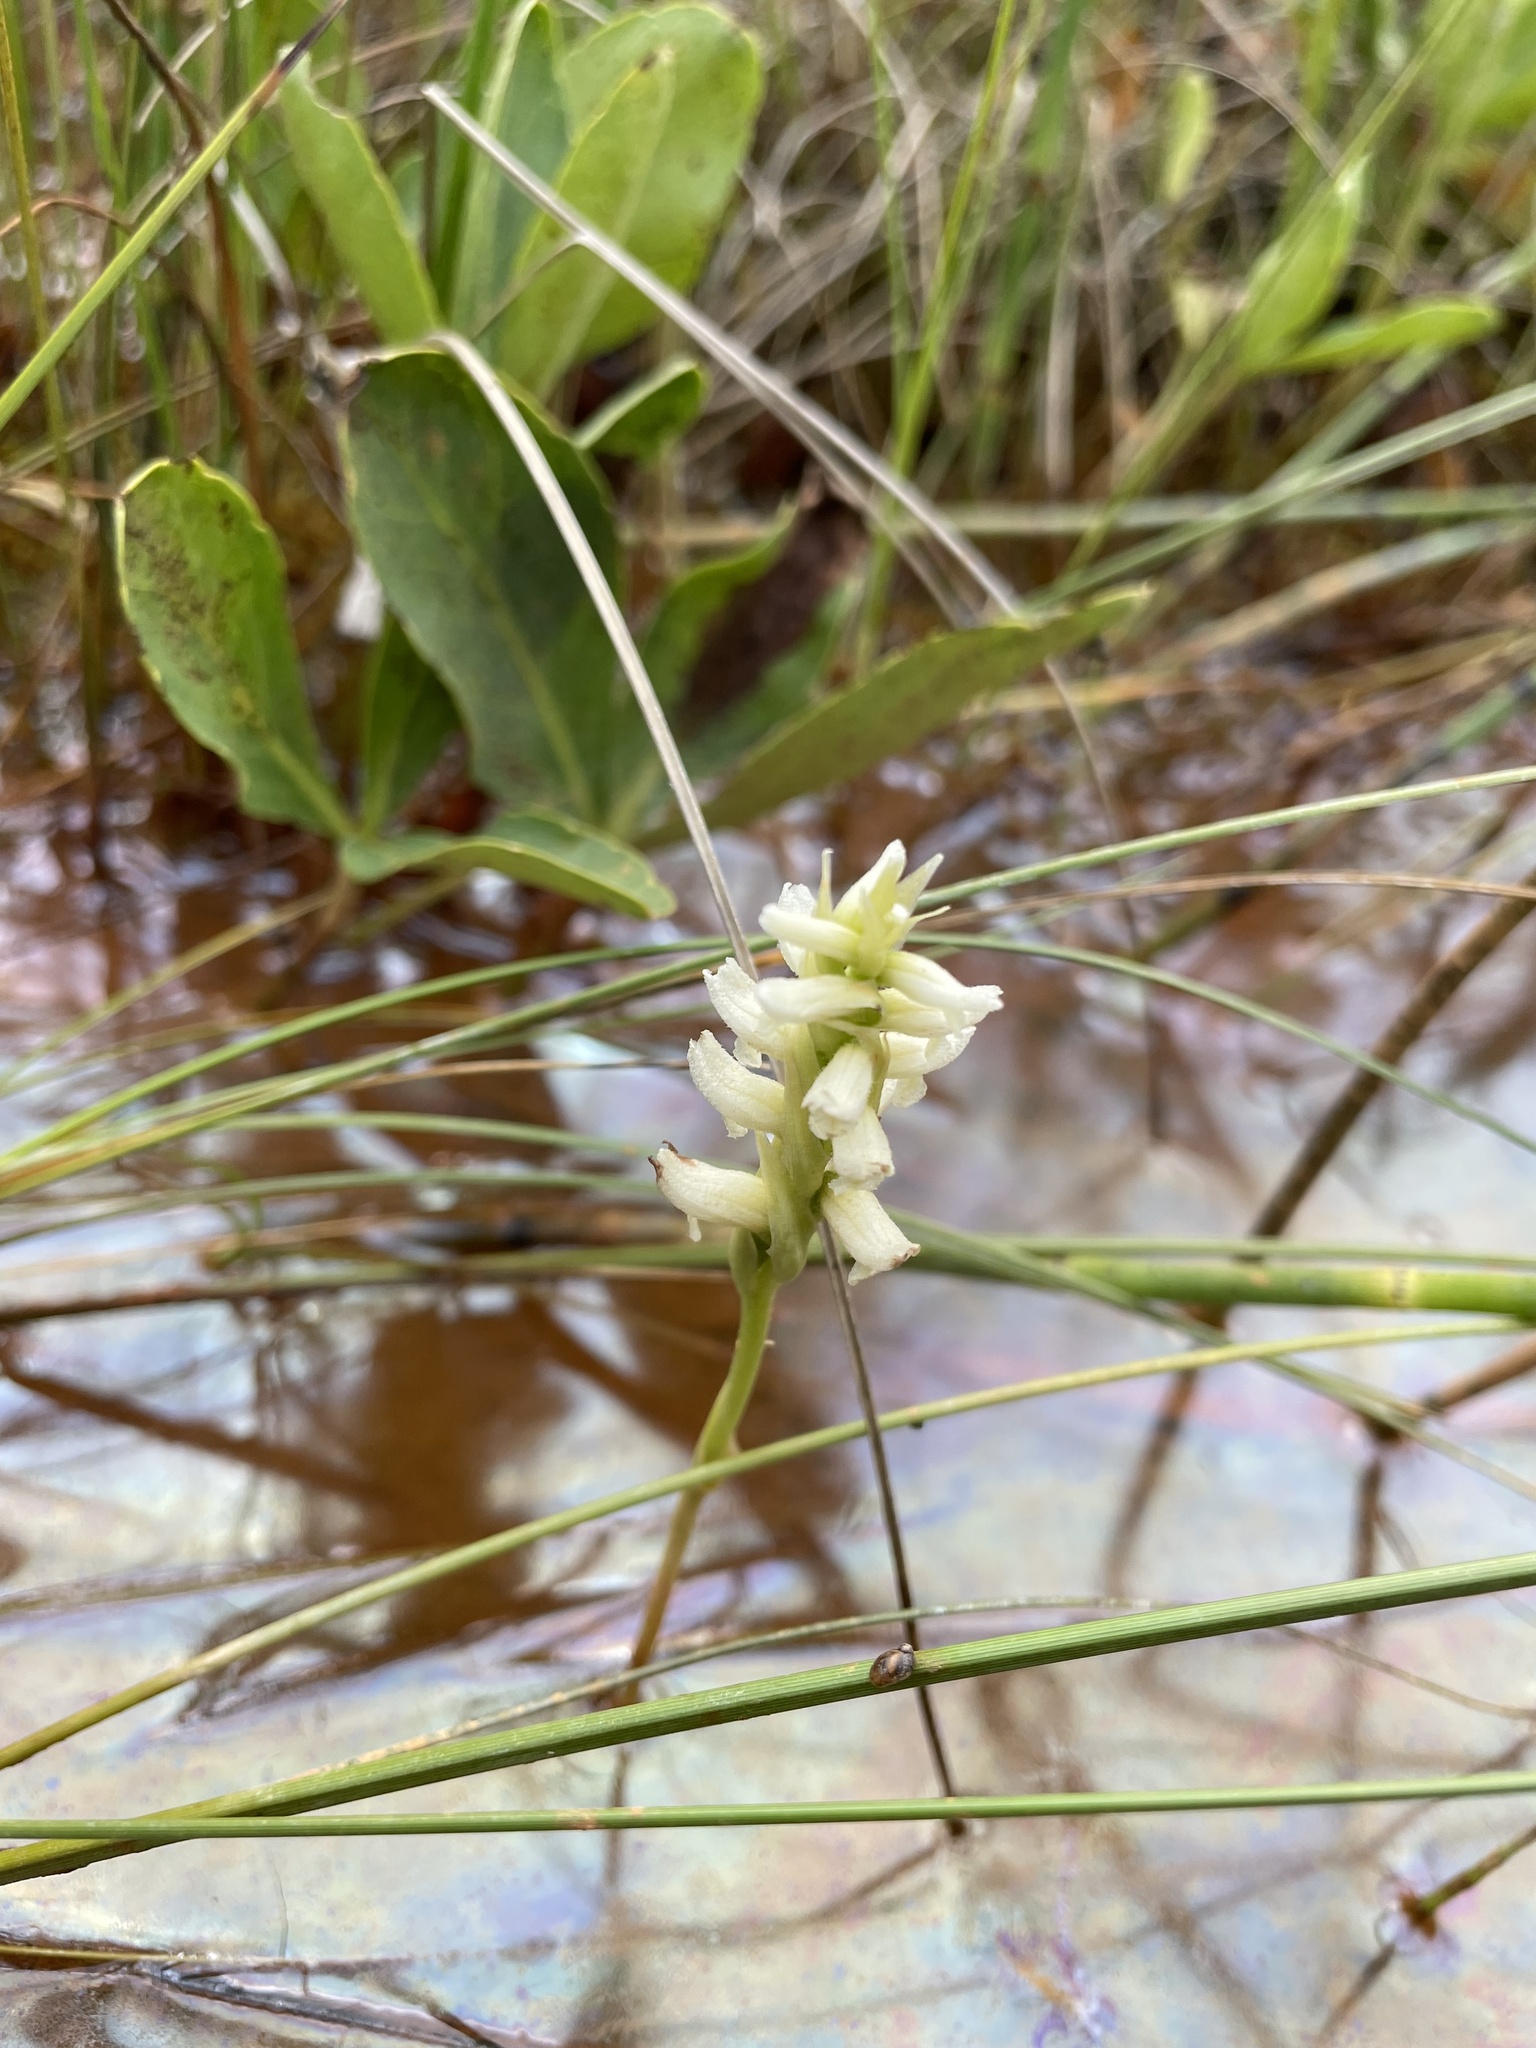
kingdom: Plantae
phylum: Tracheophyta
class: Liliopsida
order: Asparagales
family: Orchidaceae
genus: Spiranthes
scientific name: Spiranthes romanzoffiana
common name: Irish lady's-tresses
